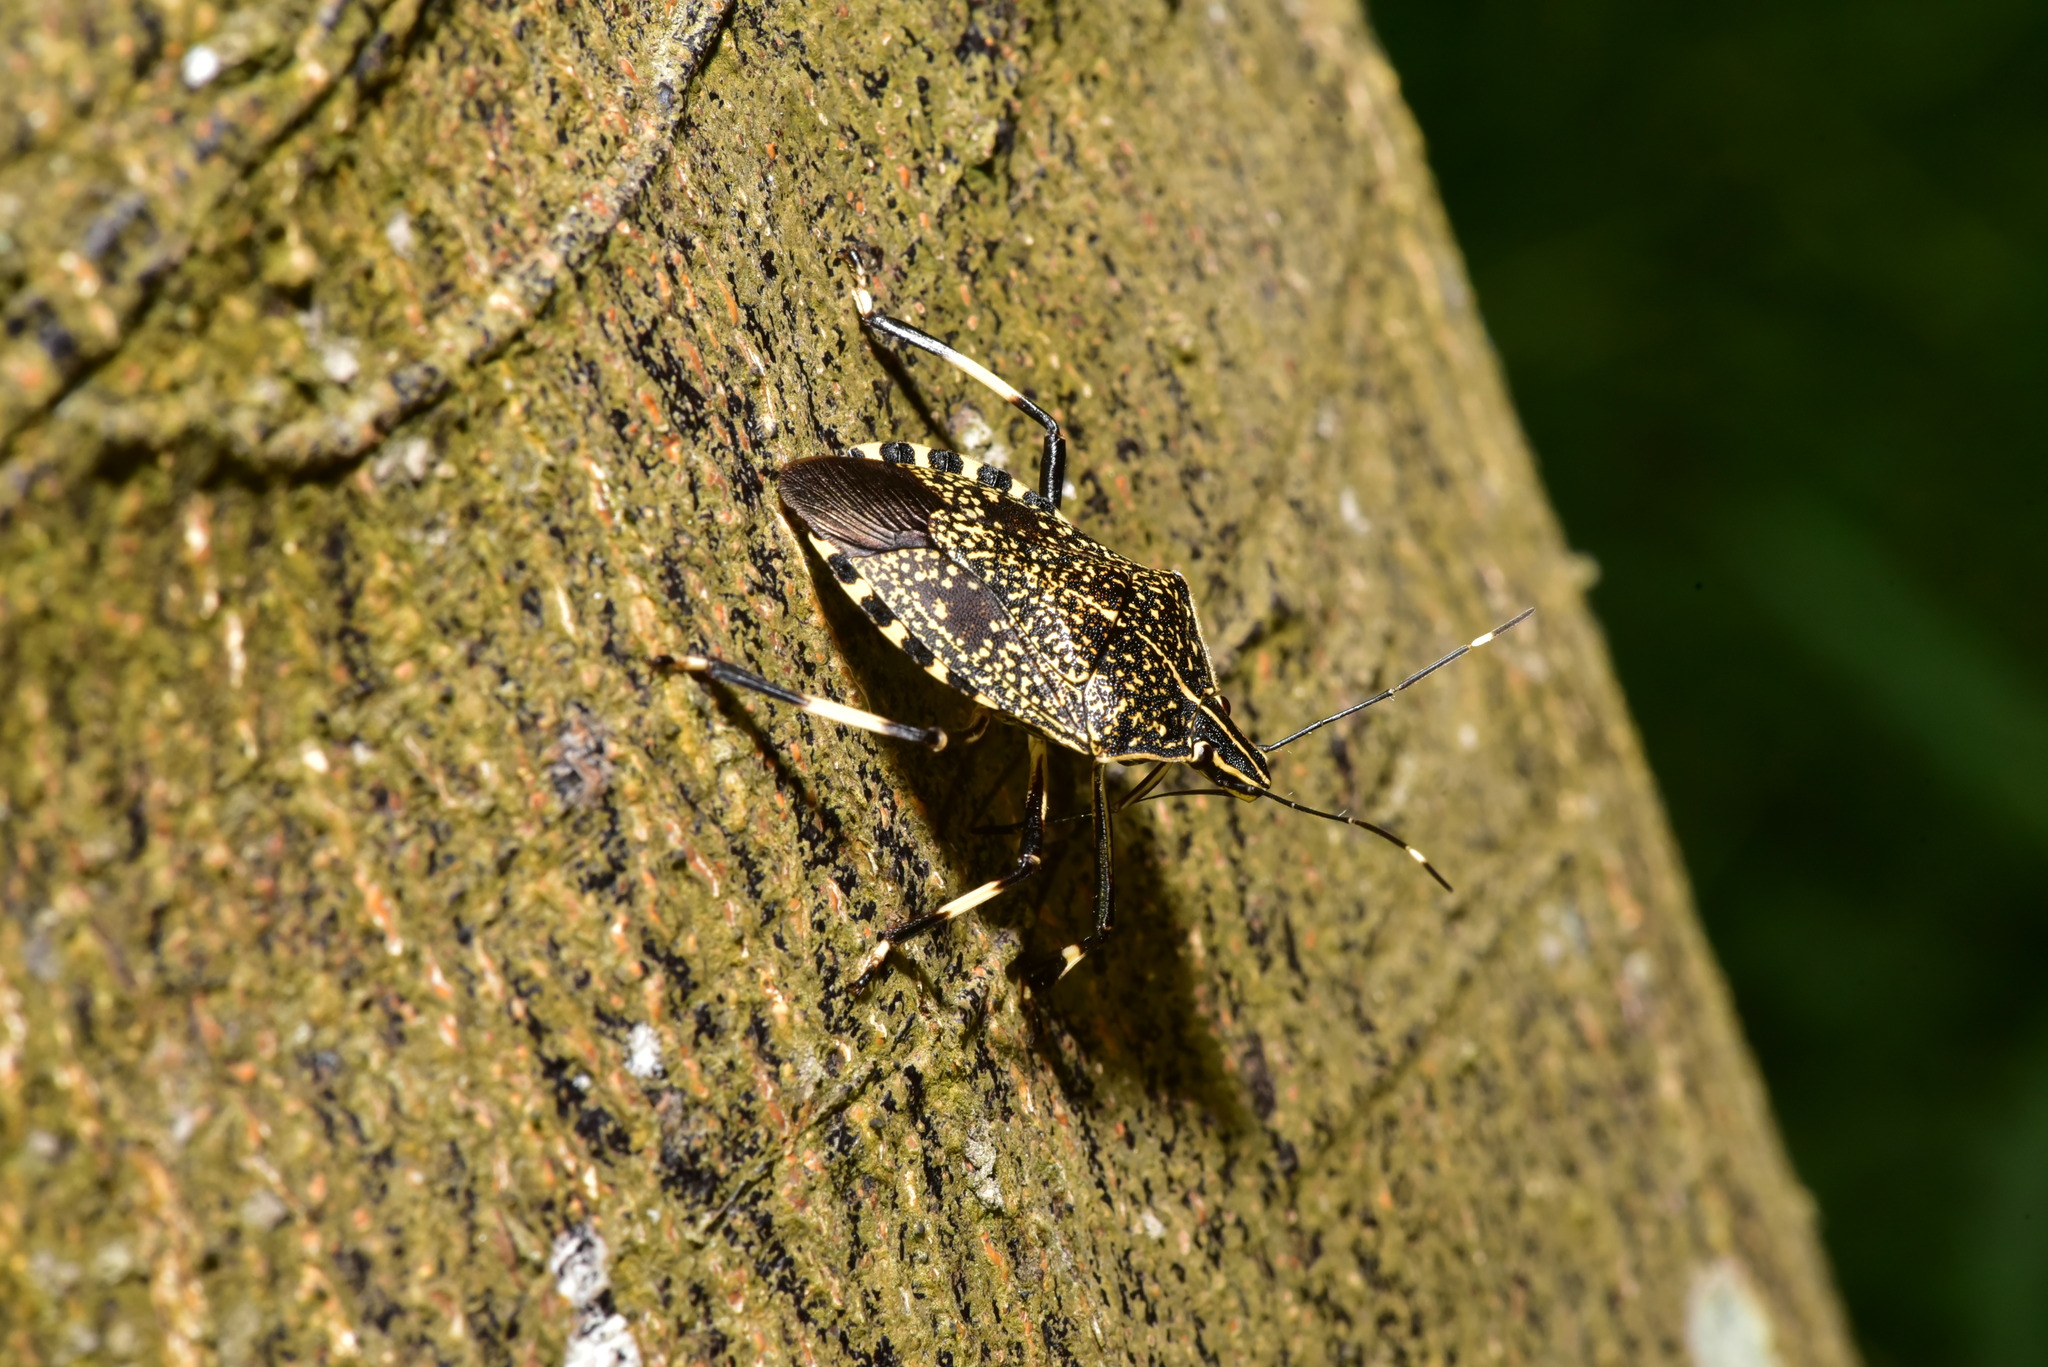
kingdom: Animalia
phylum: Arthropoda
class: Insecta
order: Hemiptera
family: Pentatomidae
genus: Erthesina
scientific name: Erthesina fullo
